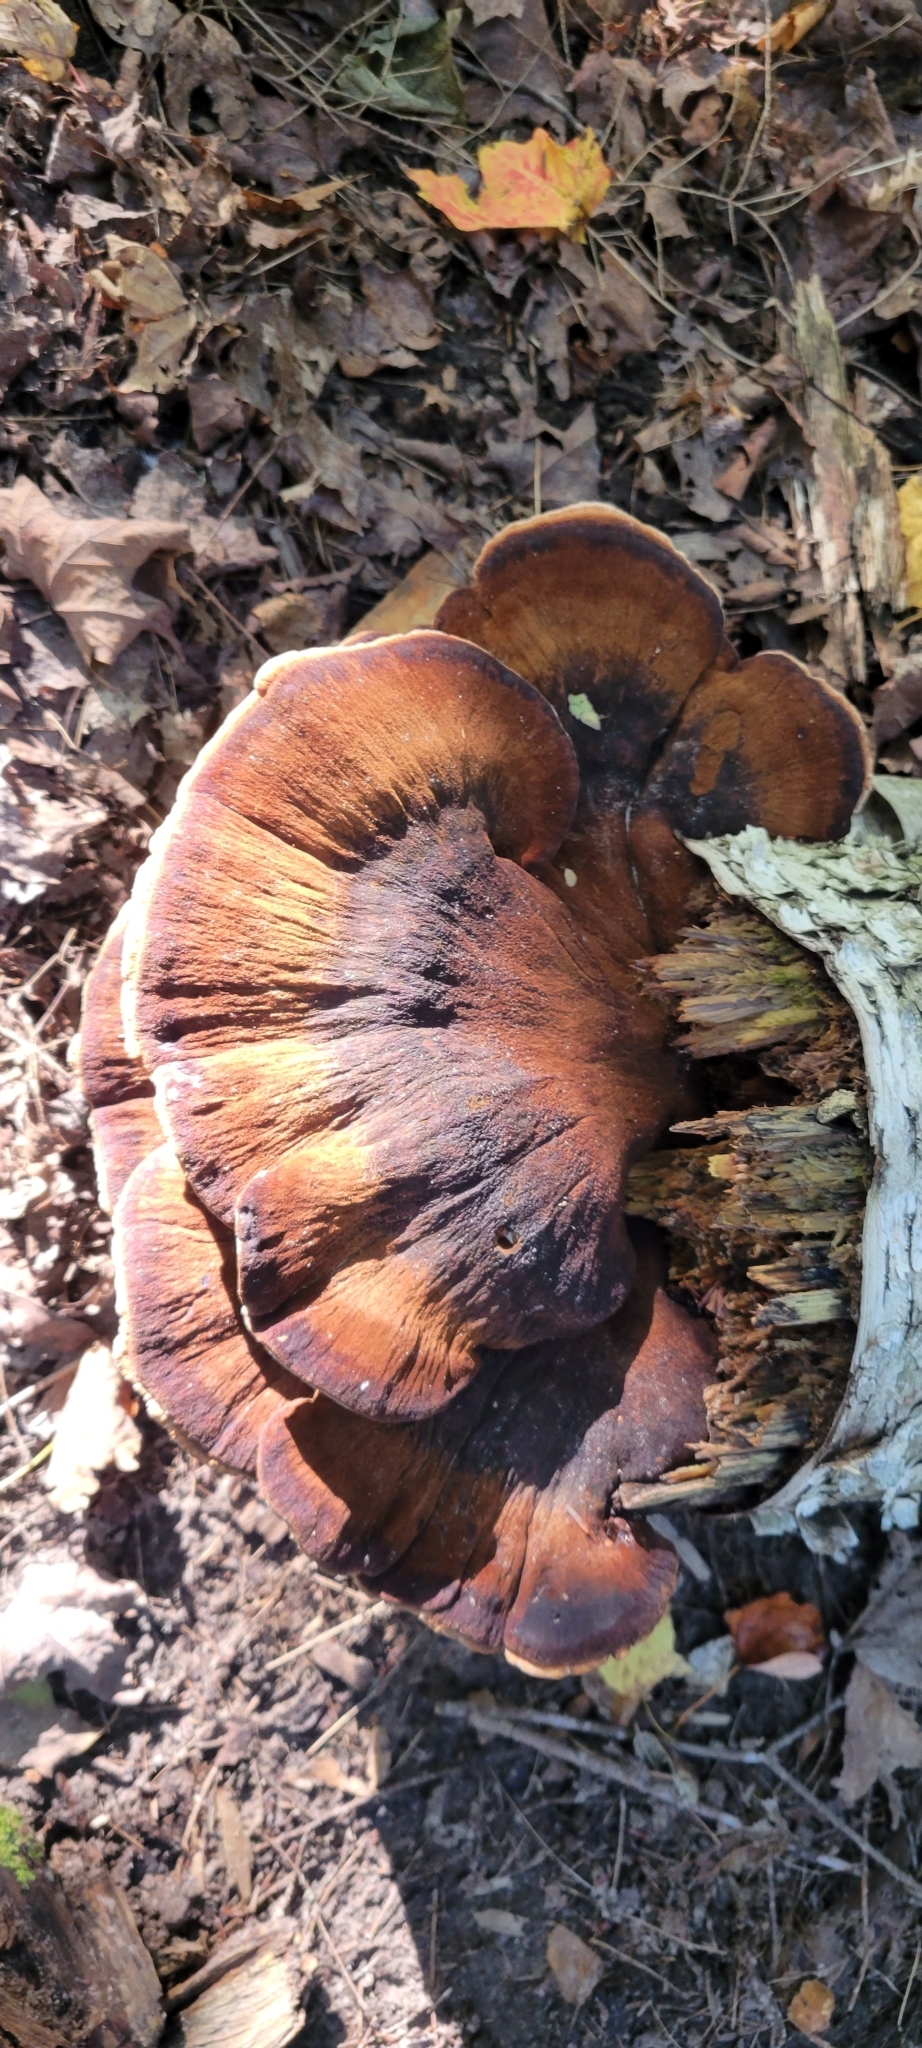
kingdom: Fungi
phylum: Basidiomycota
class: Agaricomycetes
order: Polyporales
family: Ischnodermataceae
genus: Ischnoderma
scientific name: Ischnoderma resinosum
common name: Resinous polypore
